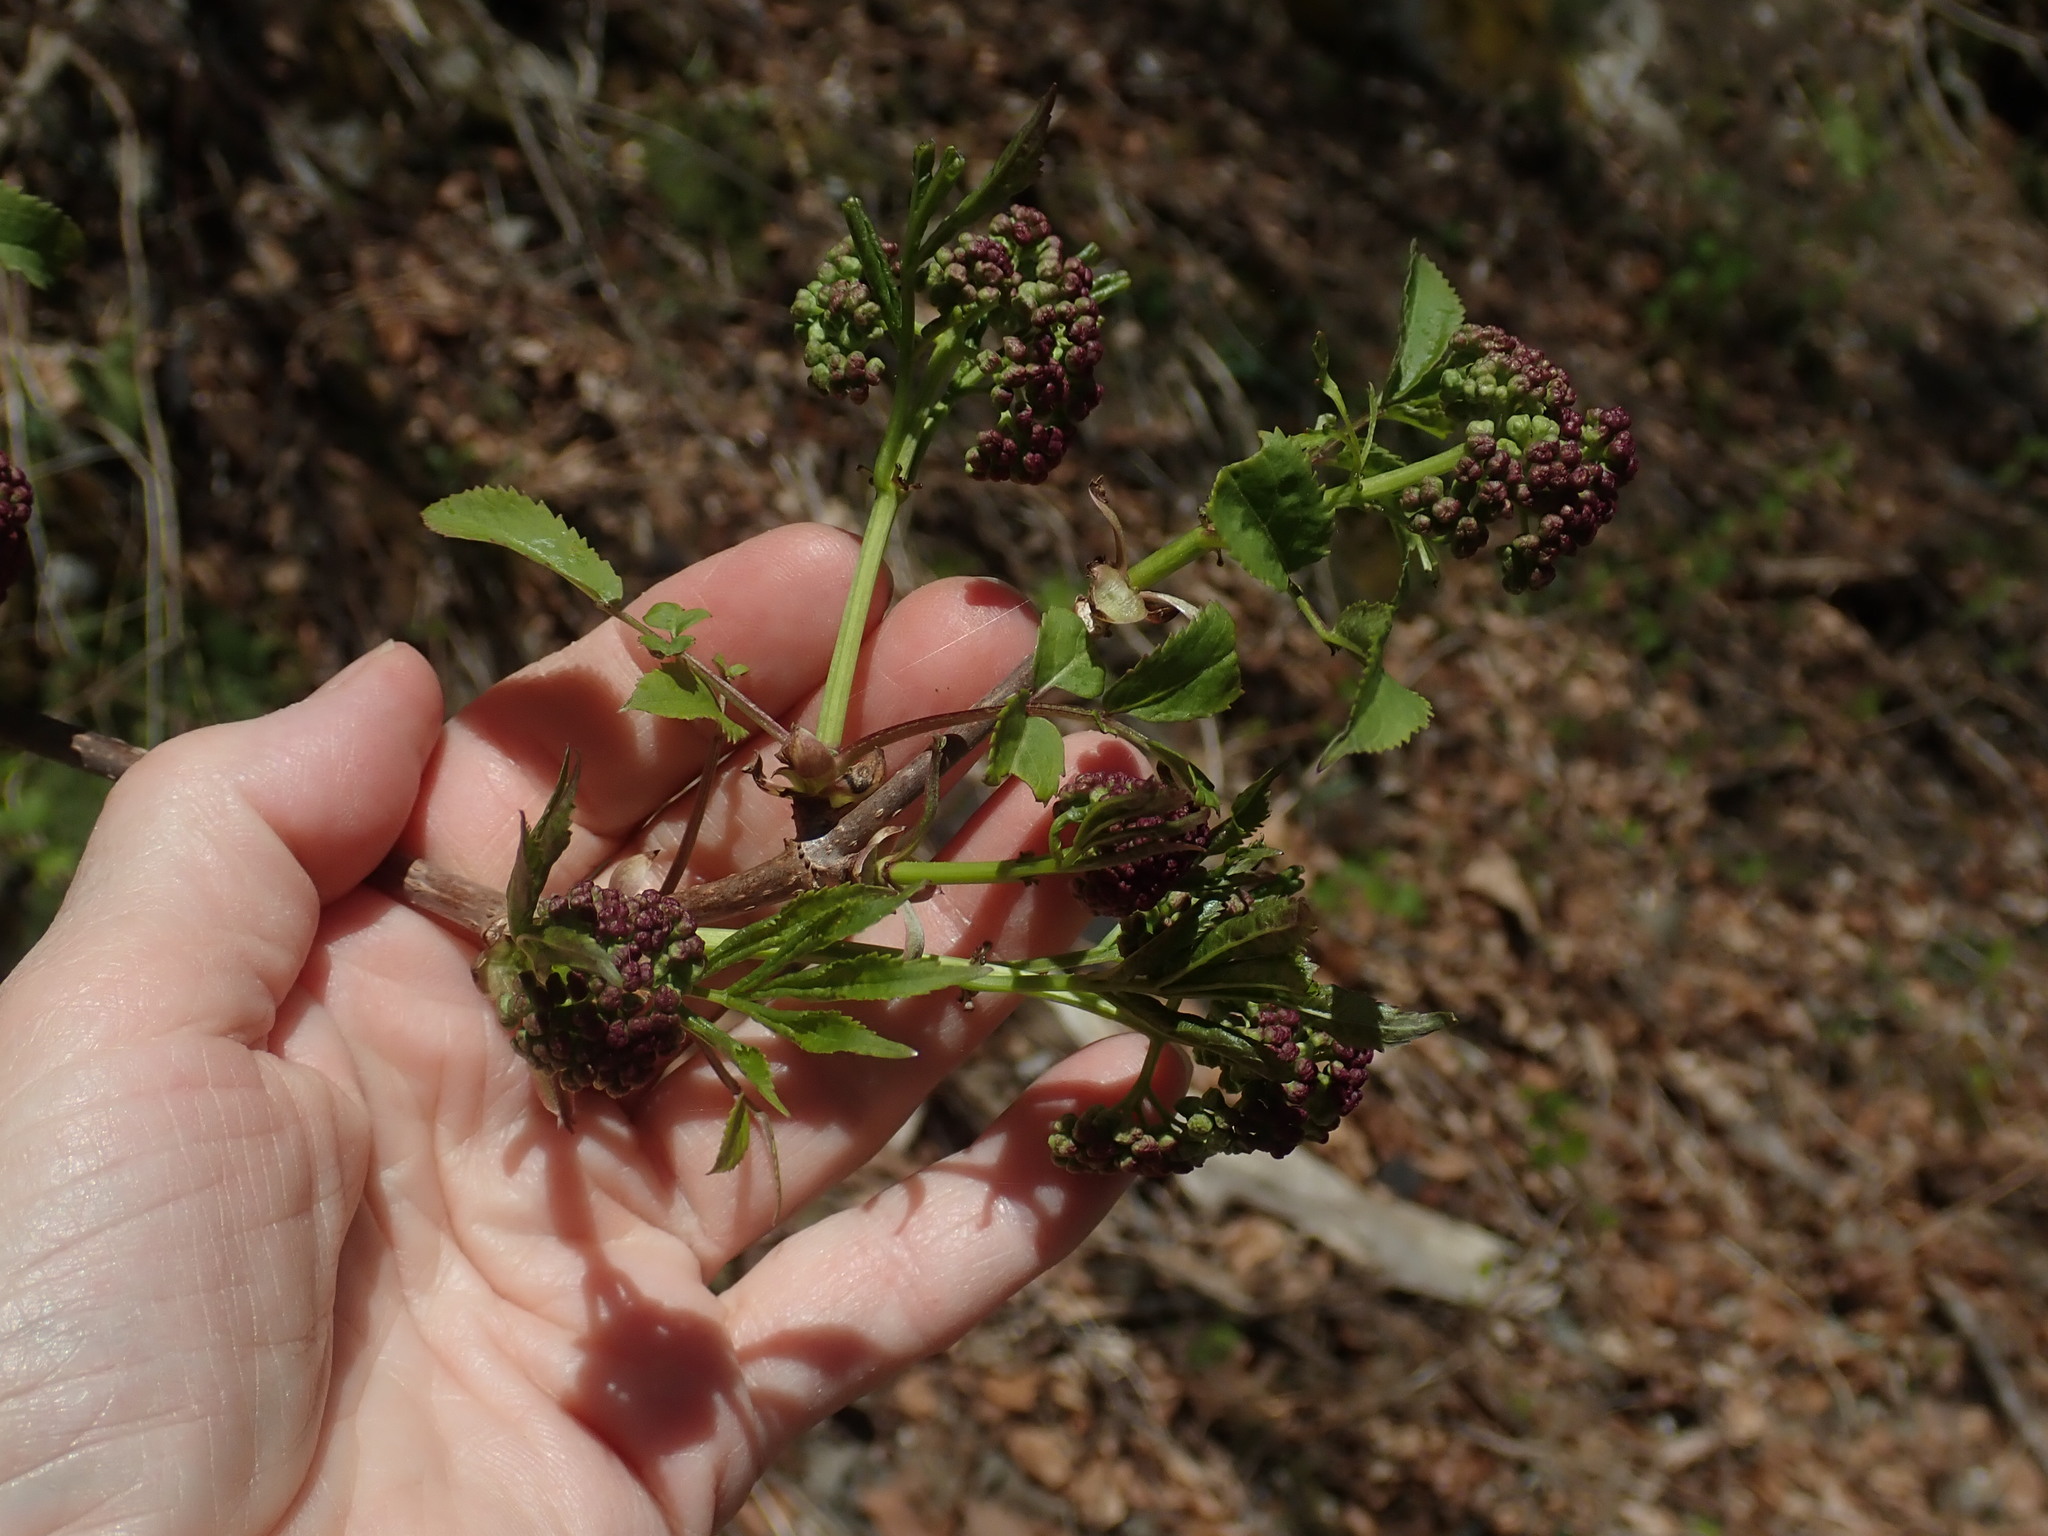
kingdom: Plantae
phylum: Tracheophyta
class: Magnoliopsida
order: Dipsacales
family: Viburnaceae
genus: Sambucus
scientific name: Sambucus racemosa
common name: Red-berried elder
